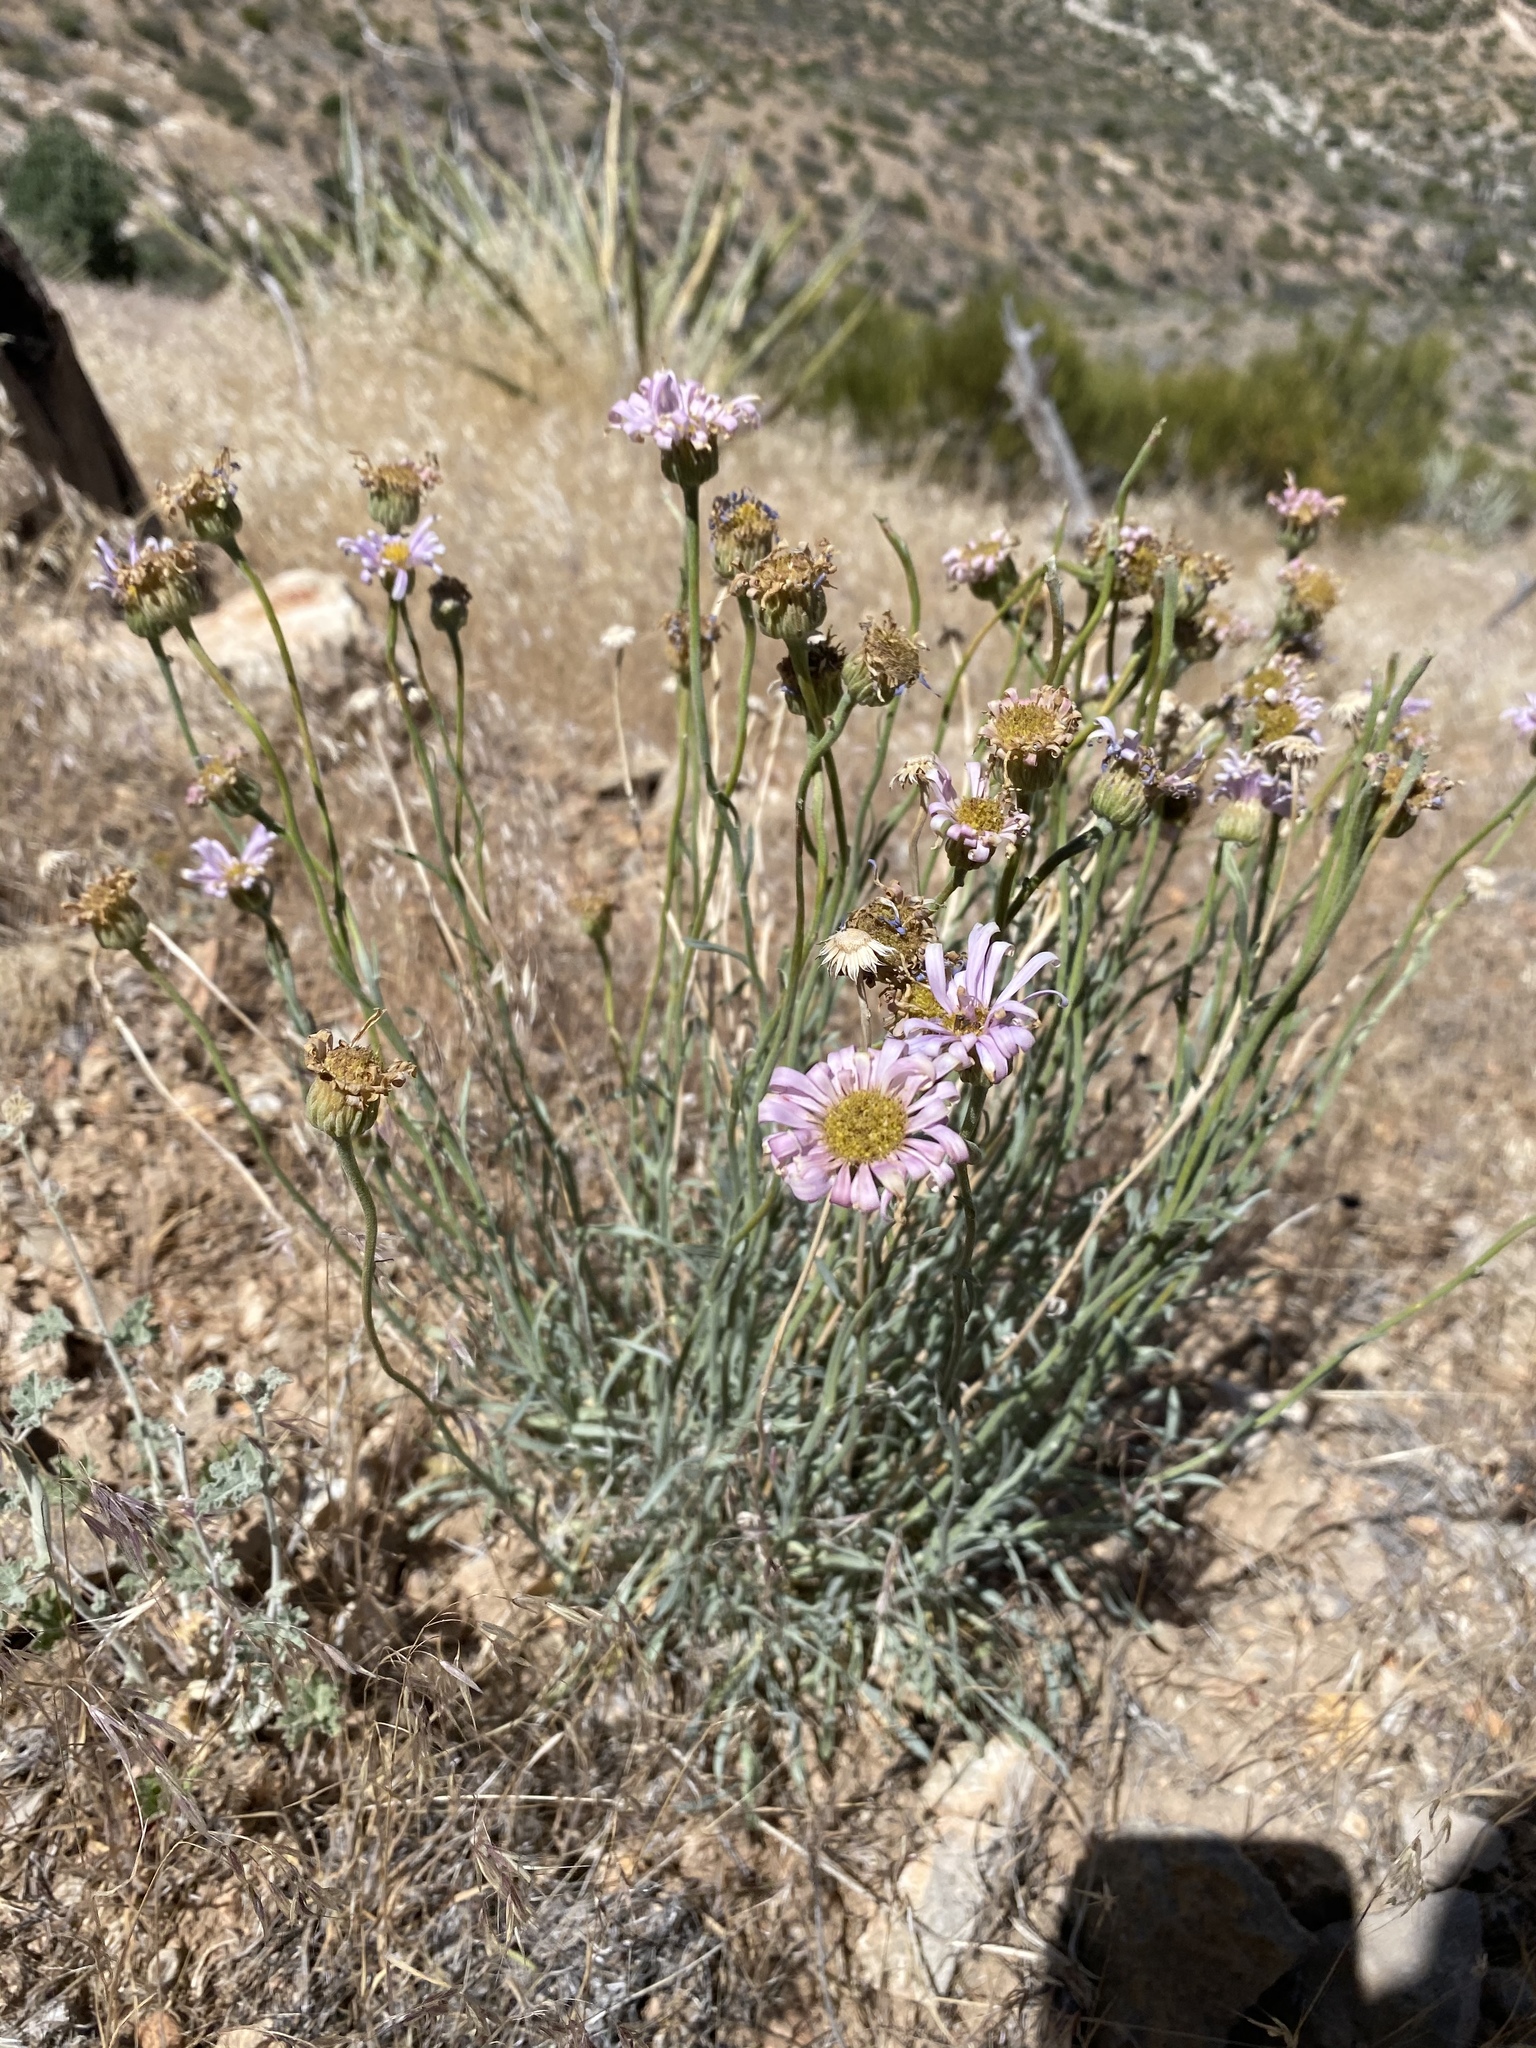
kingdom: Plantae
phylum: Tracheophyta
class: Magnoliopsida
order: Asterales
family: Asteraceae
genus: Erigeron
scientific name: Erigeron argentatus
